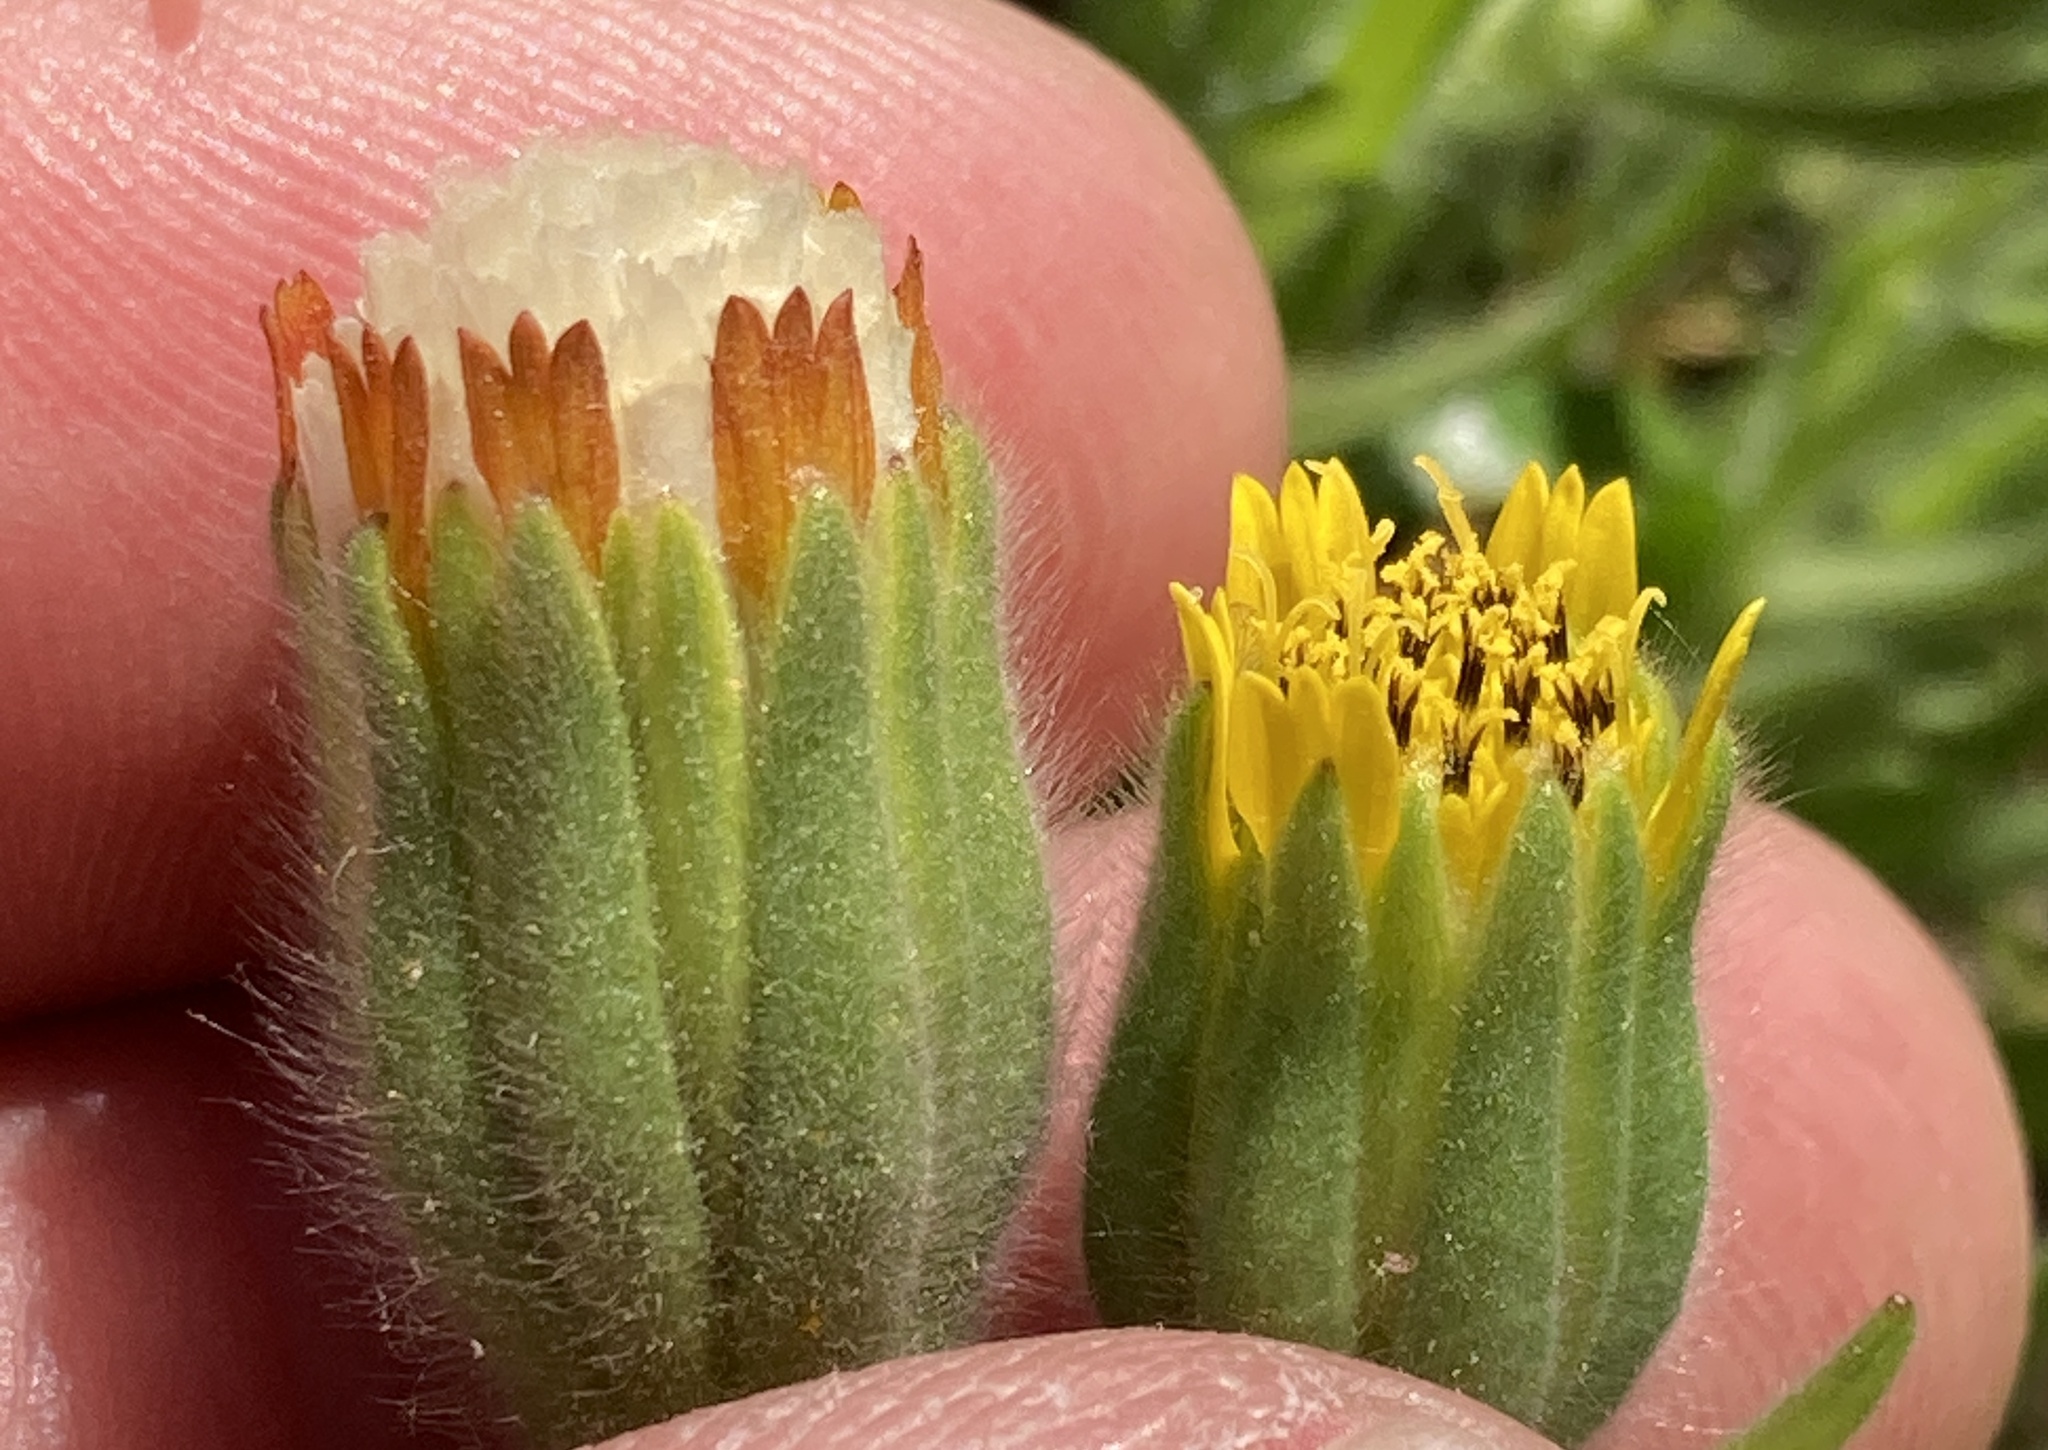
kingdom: Plantae
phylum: Tracheophyta
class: Magnoliopsida
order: Asterales
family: Asteraceae
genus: Achyrachaena
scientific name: Achyrachaena mollis
